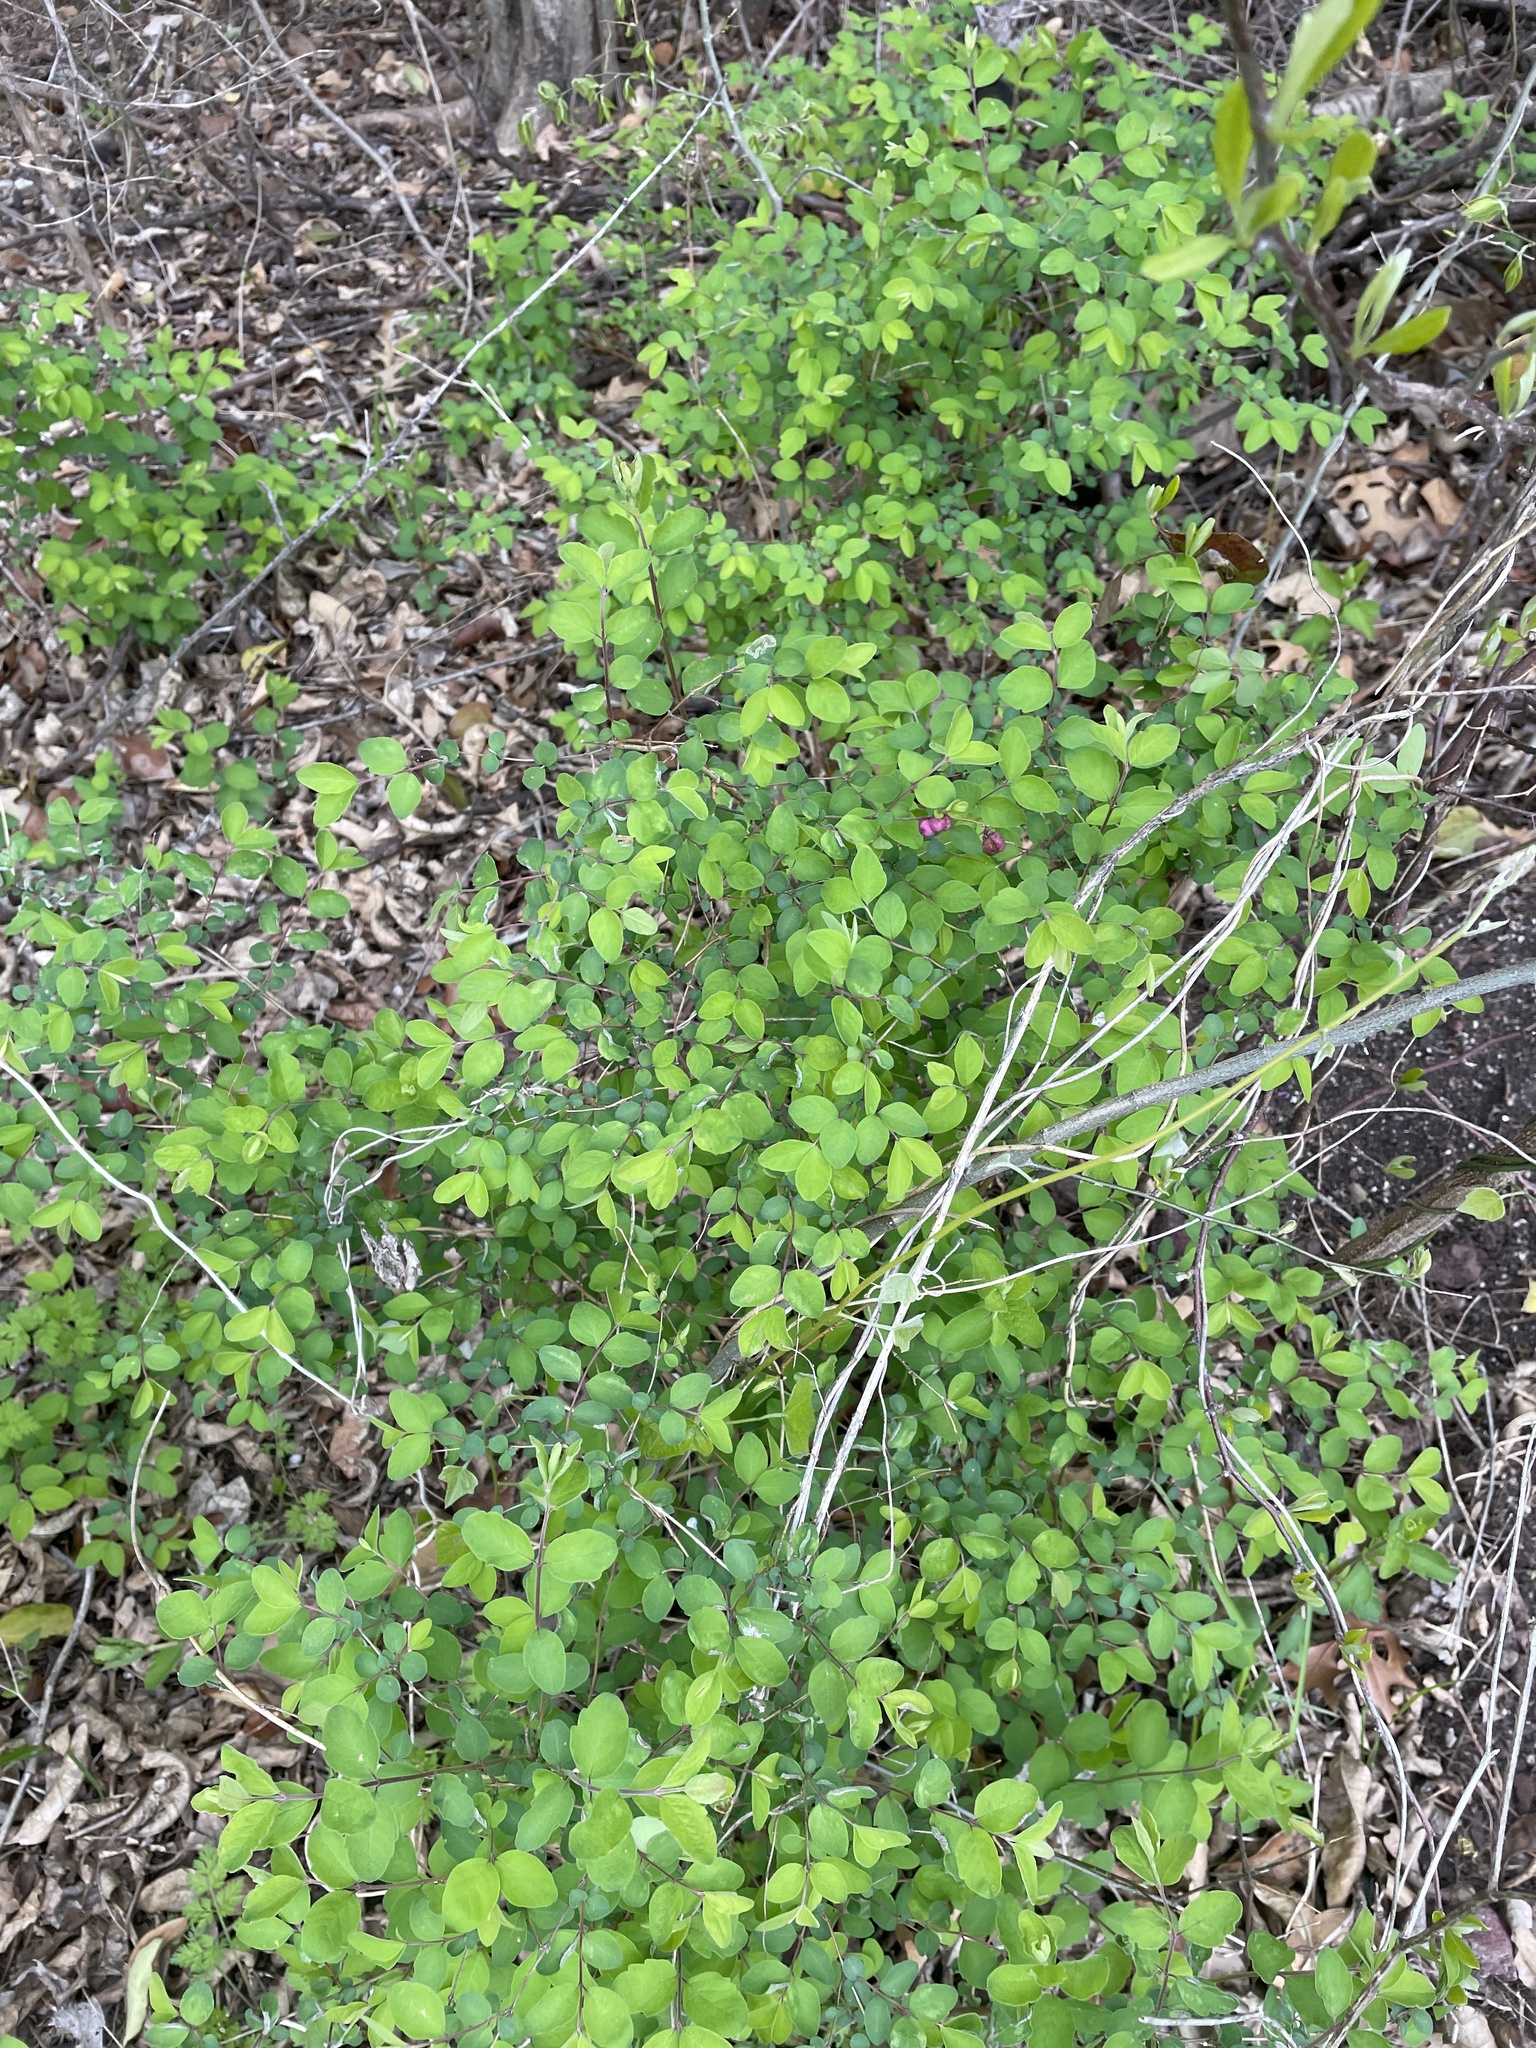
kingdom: Plantae
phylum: Tracheophyta
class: Magnoliopsida
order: Dipsacales
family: Caprifoliaceae
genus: Symphoricarpos
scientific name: Symphoricarpos orbiculatus
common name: Coralberry
